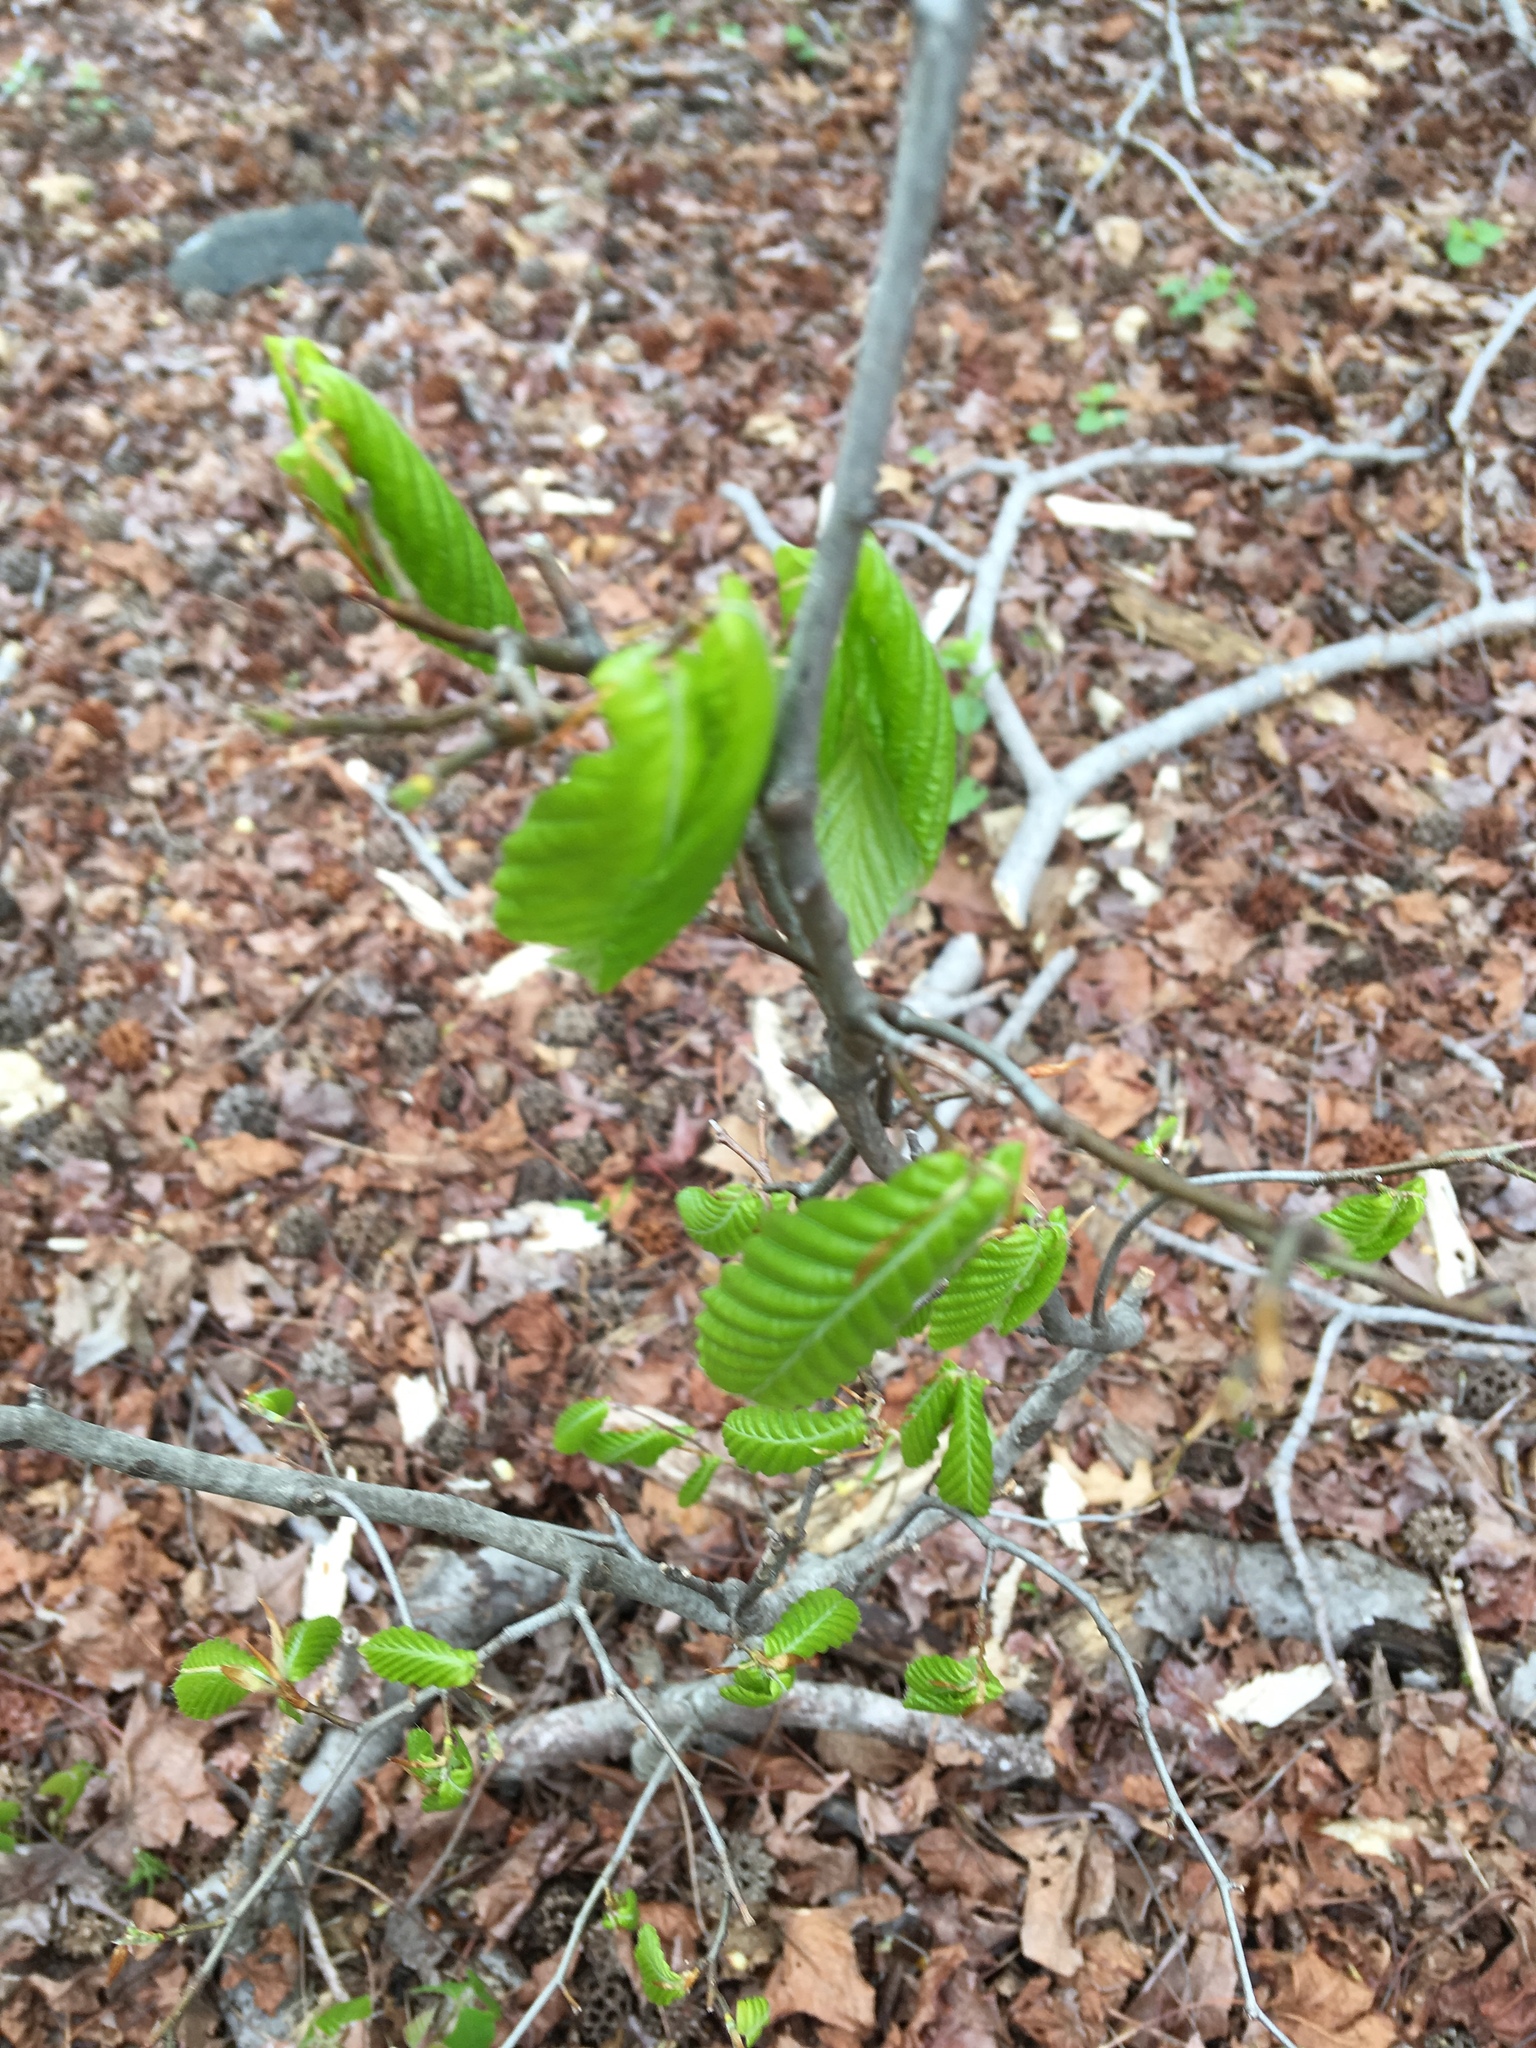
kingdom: Plantae
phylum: Tracheophyta
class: Magnoliopsida
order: Fagales
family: Betulaceae
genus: Carpinus
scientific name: Carpinus caroliniana
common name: American hornbeam
